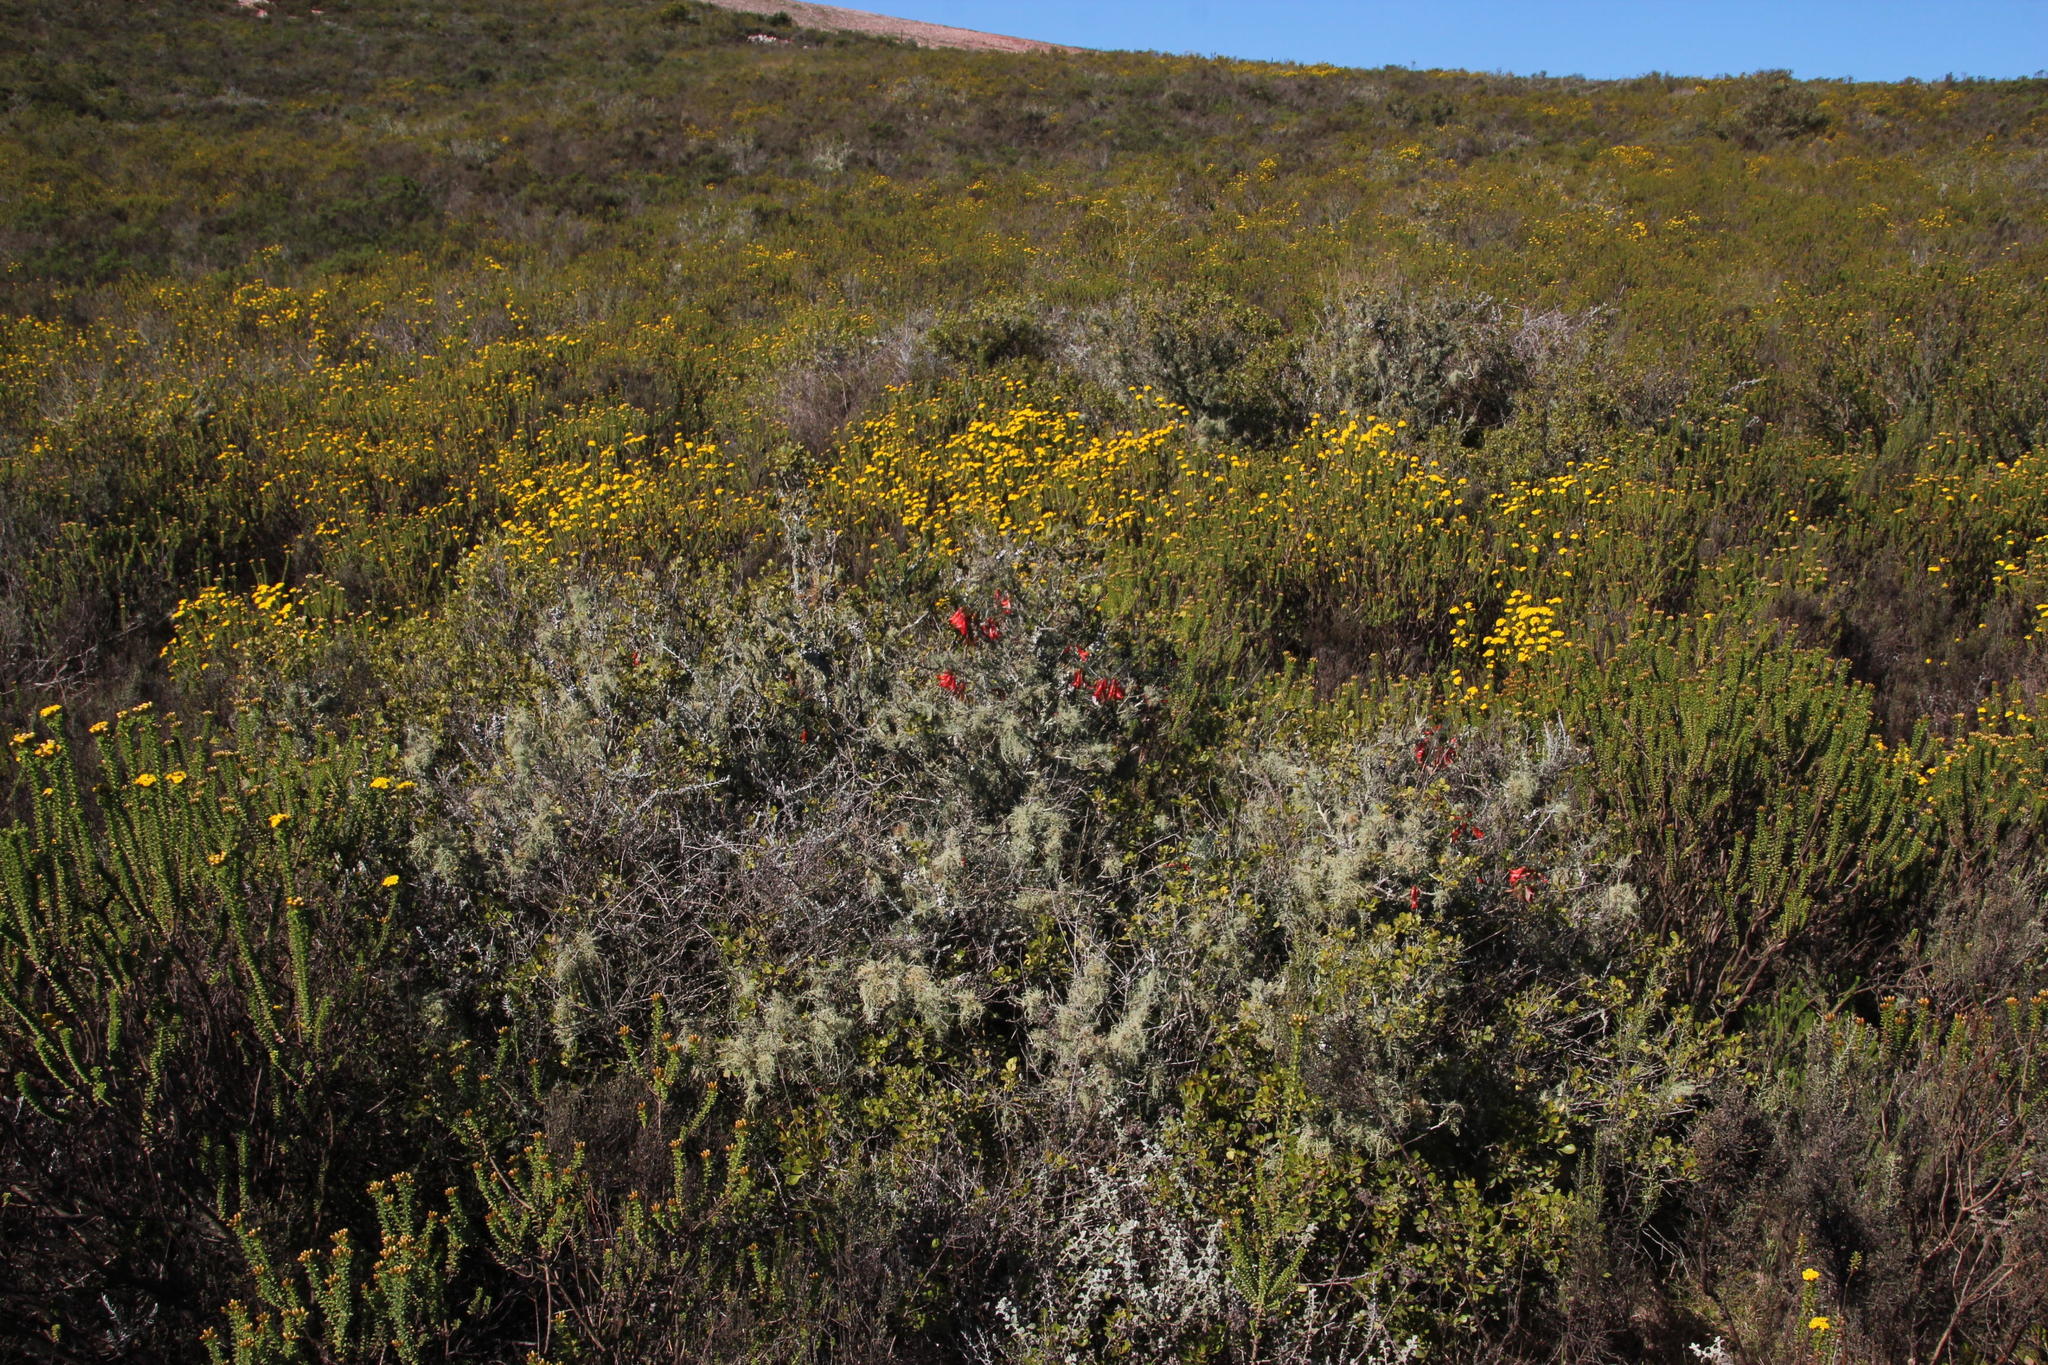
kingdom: Plantae
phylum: Tracheophyta
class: Magnoliopsida
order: Fabales
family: Fabaceae
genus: Lessertia
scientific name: Lessertia frutescens
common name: Balloon-pea
